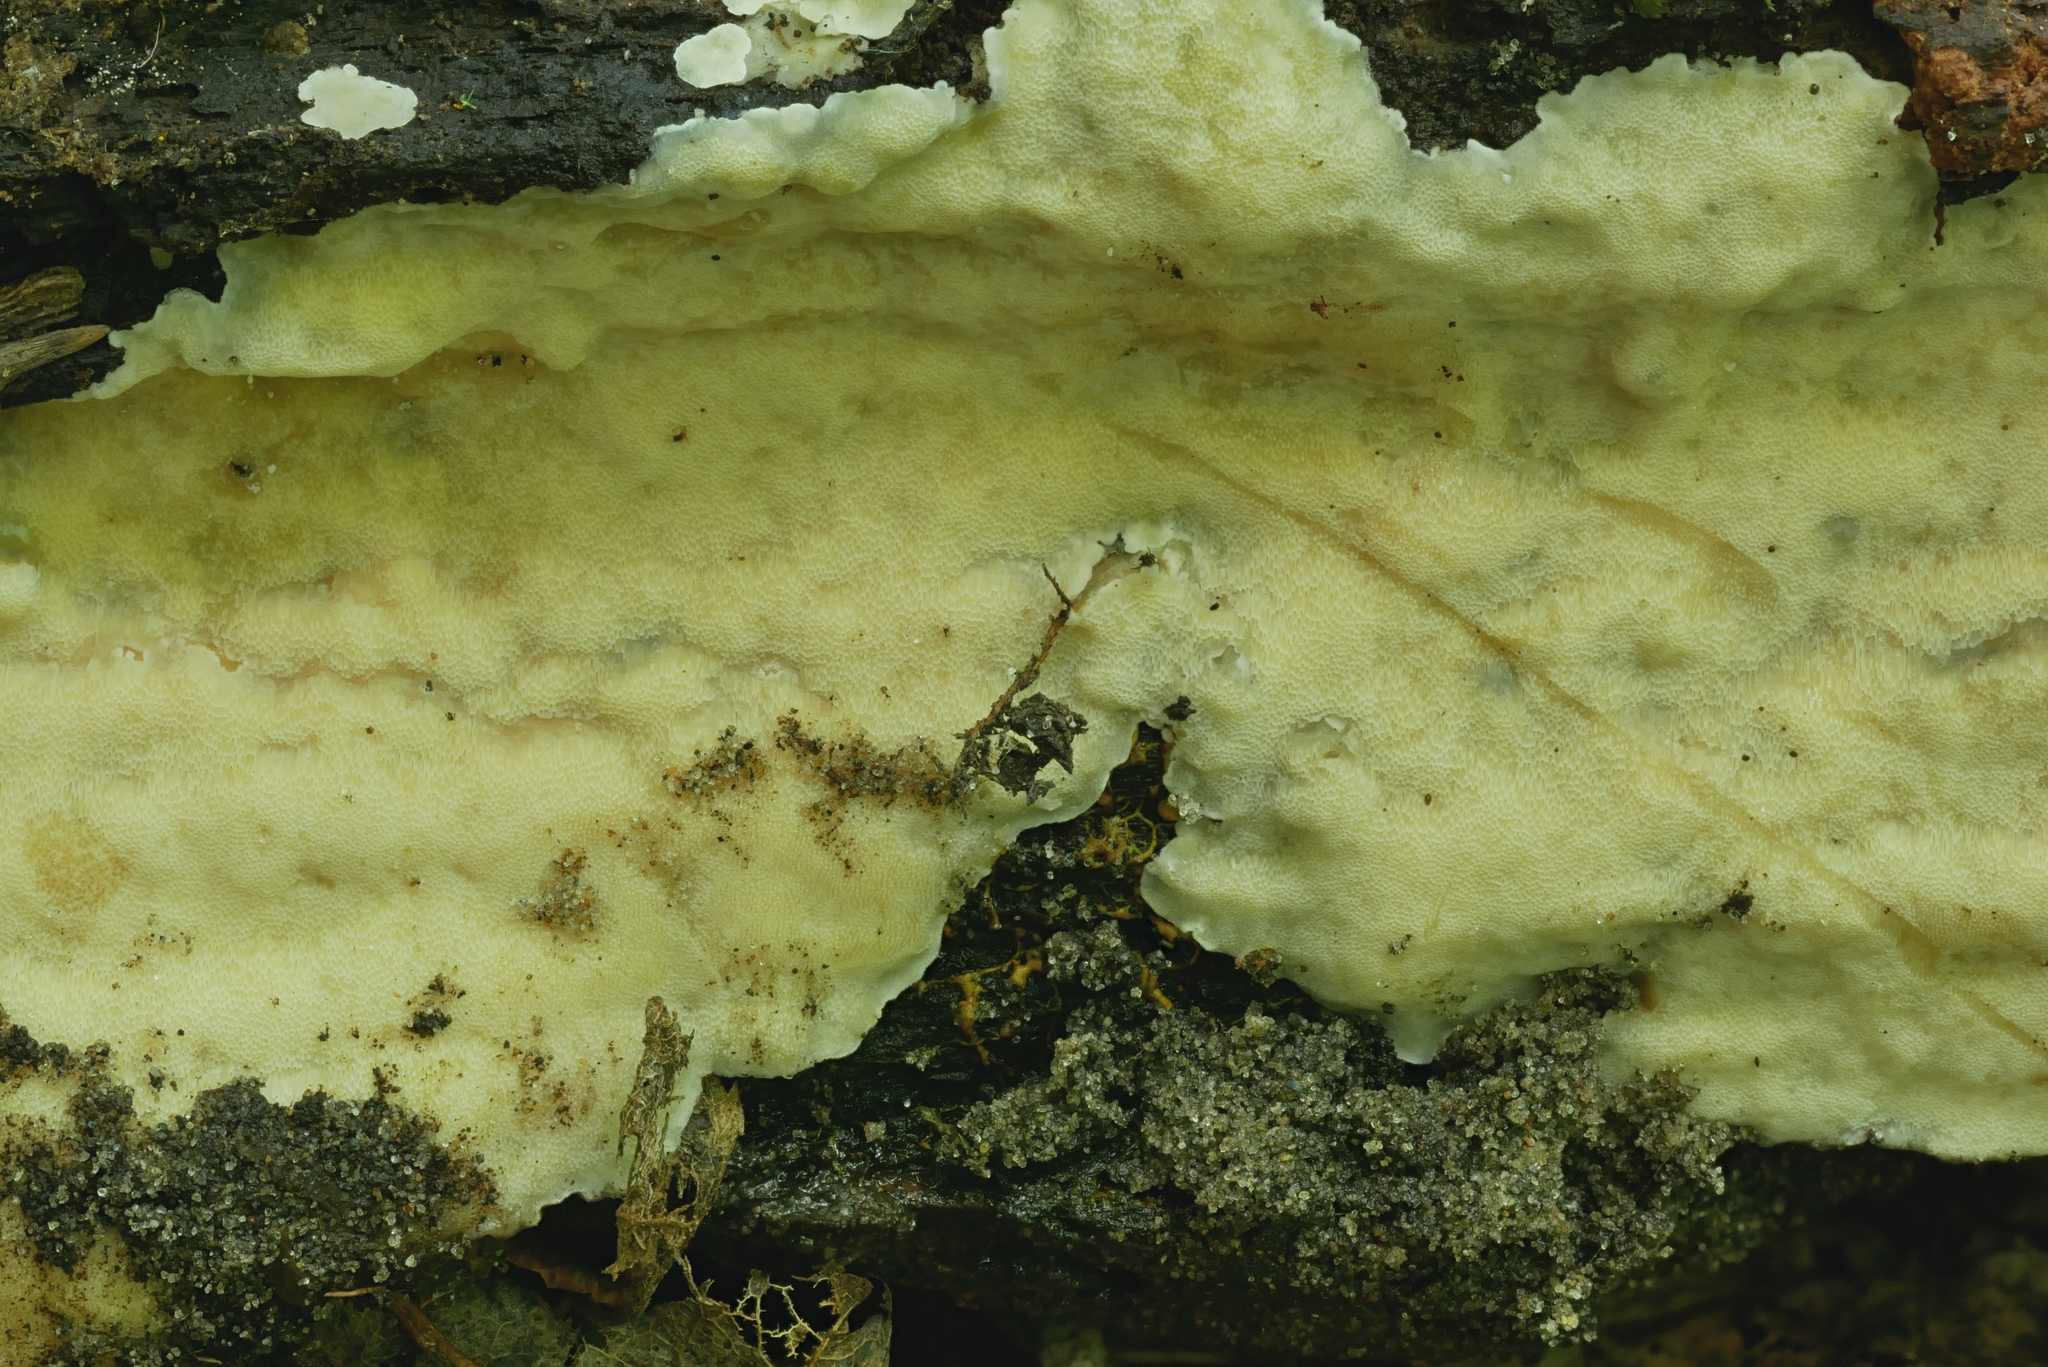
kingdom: Fungi
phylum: Basidiomycota
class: Agaricomycetes
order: Polyporales
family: Meruliaceae
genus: Physisporinus
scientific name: Physisporinus vitreus
